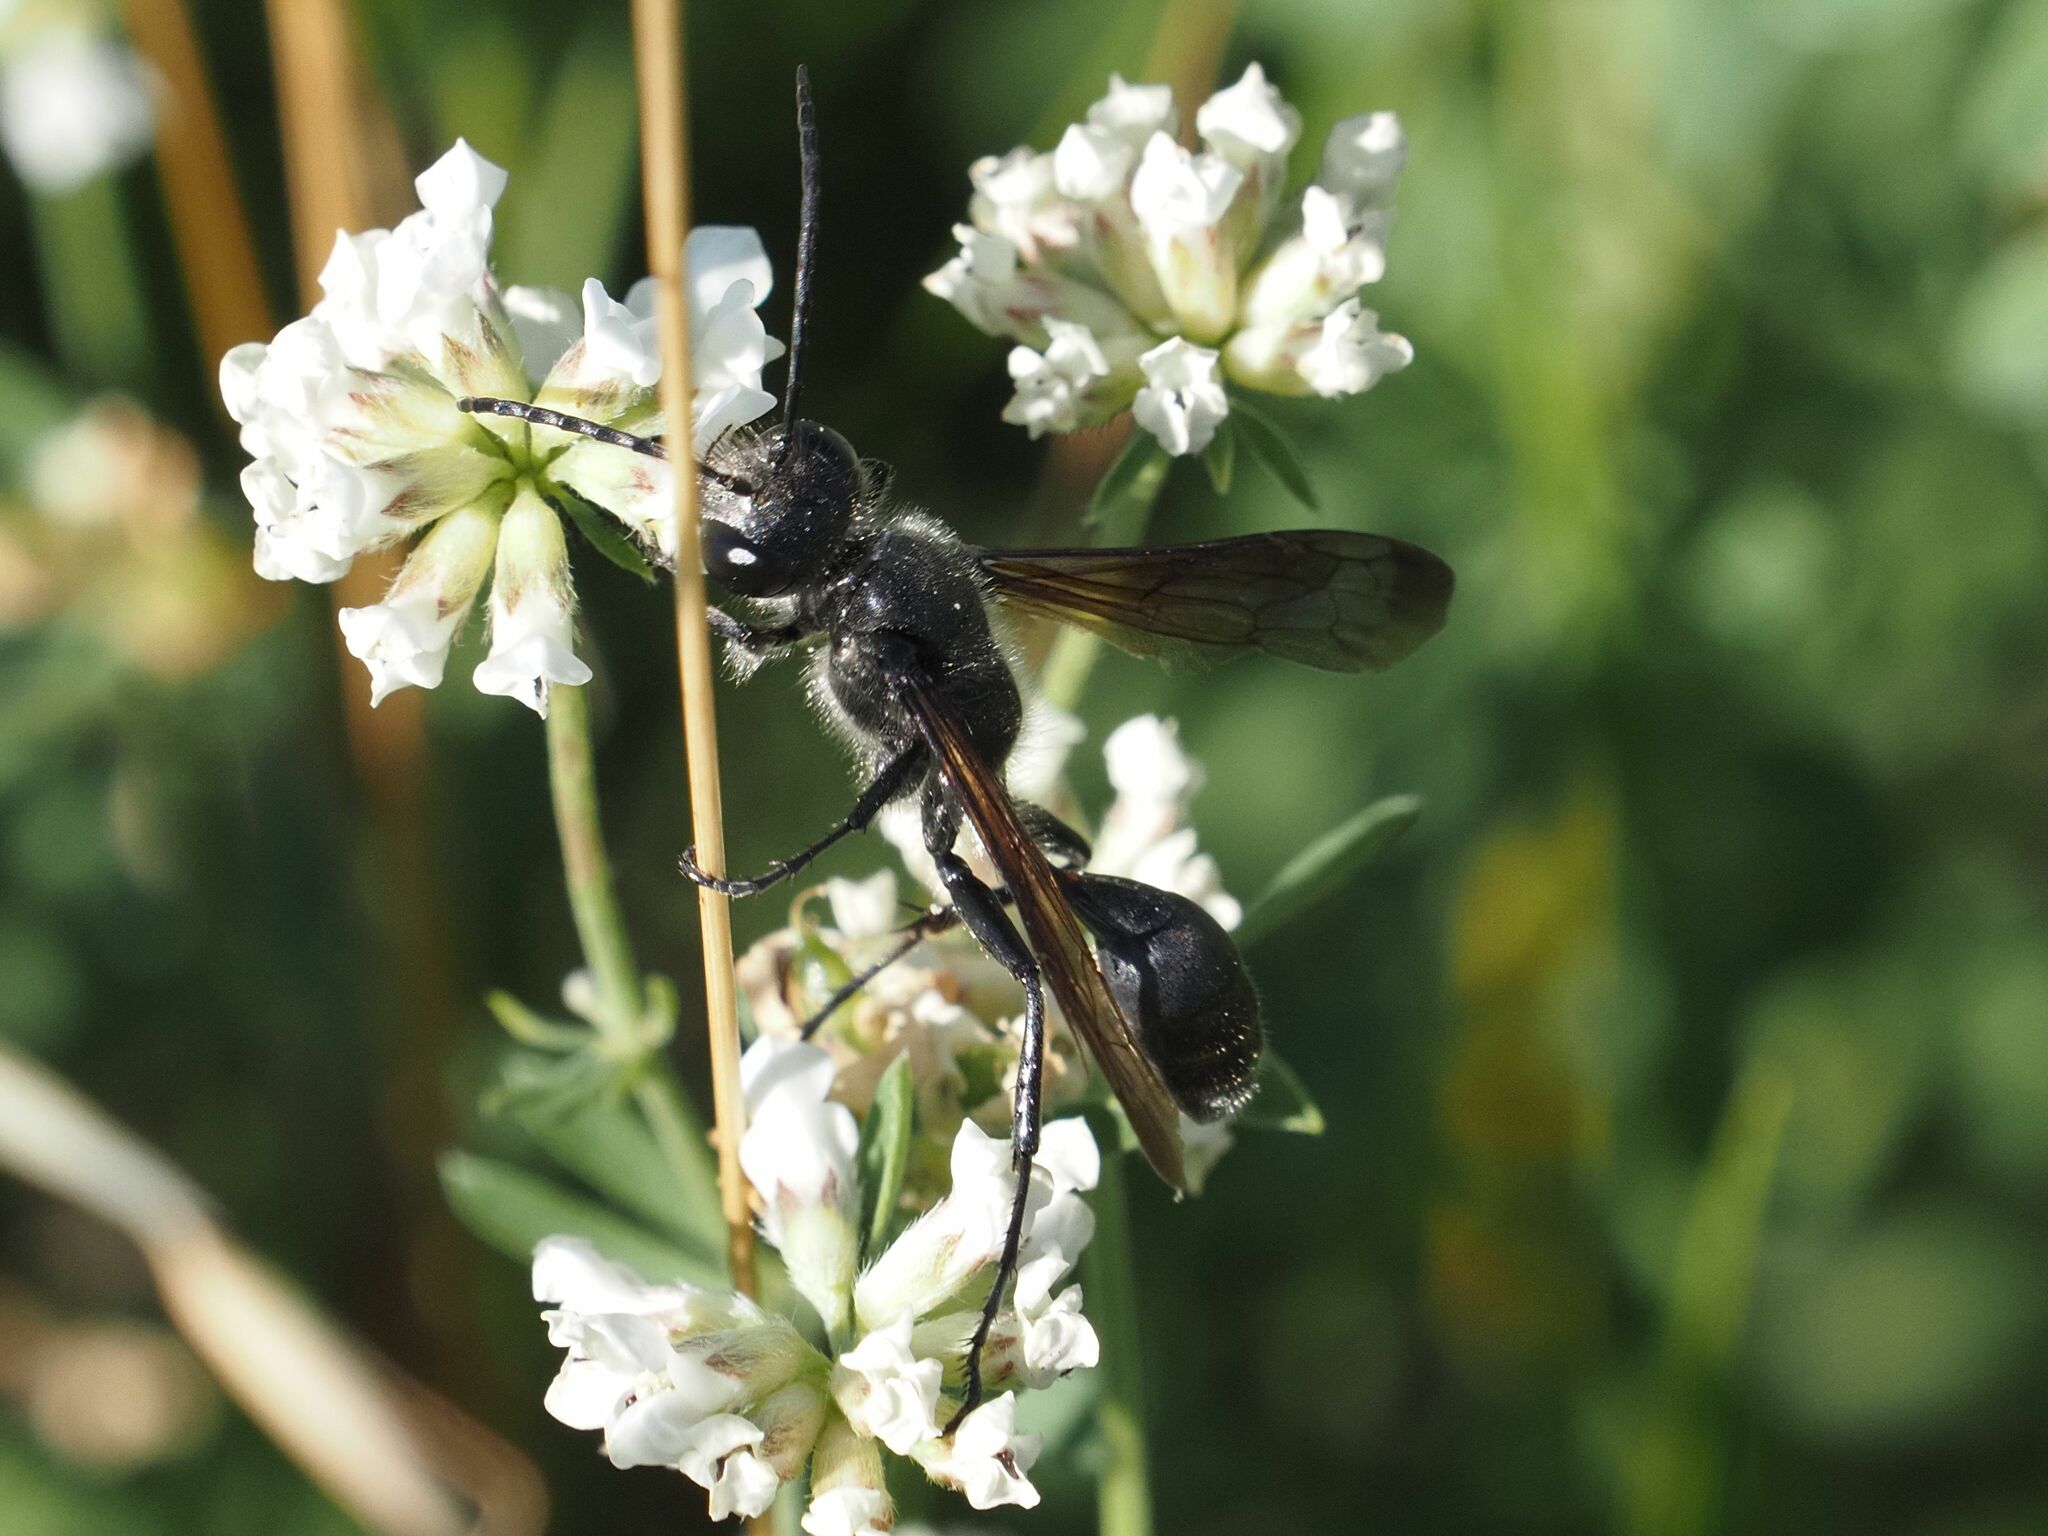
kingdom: Animalia
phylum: Arthropoda
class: Insecta
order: Hymenoptera
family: Sphecidae
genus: Isodontia
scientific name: Isodontia mexicana
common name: Mud dauber
